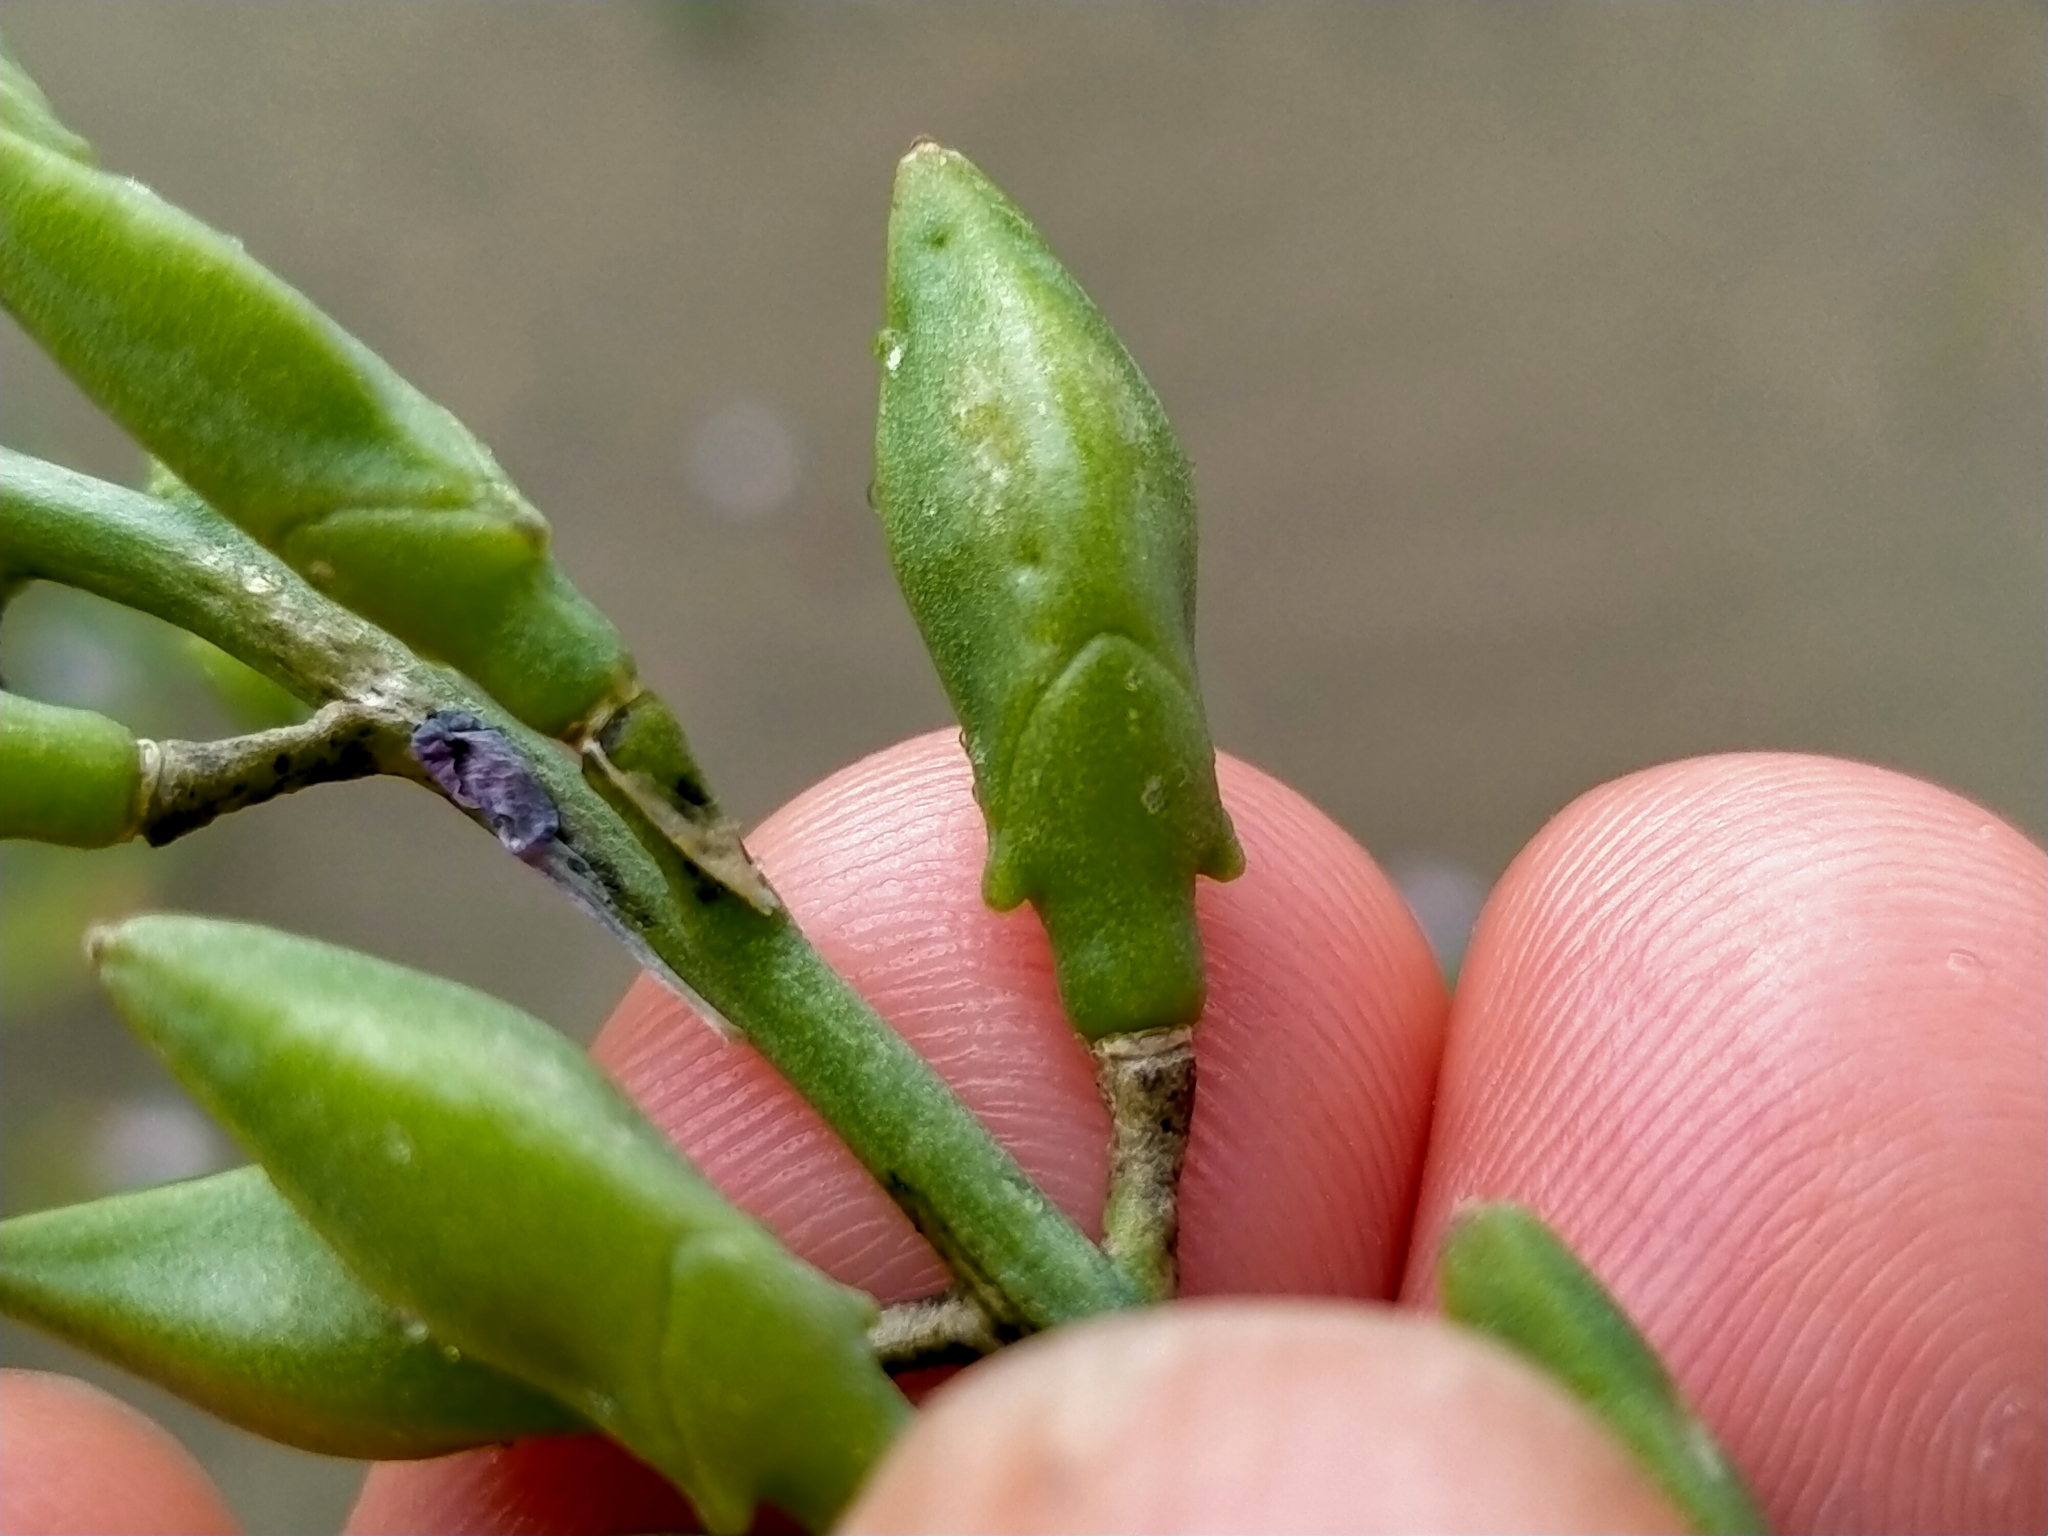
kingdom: Plantae
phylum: Tracheophyta
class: Magnoliopsida
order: Brassicales
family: Brassicaceae
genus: Cakile
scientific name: Cakile maritima
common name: Sea rocket
